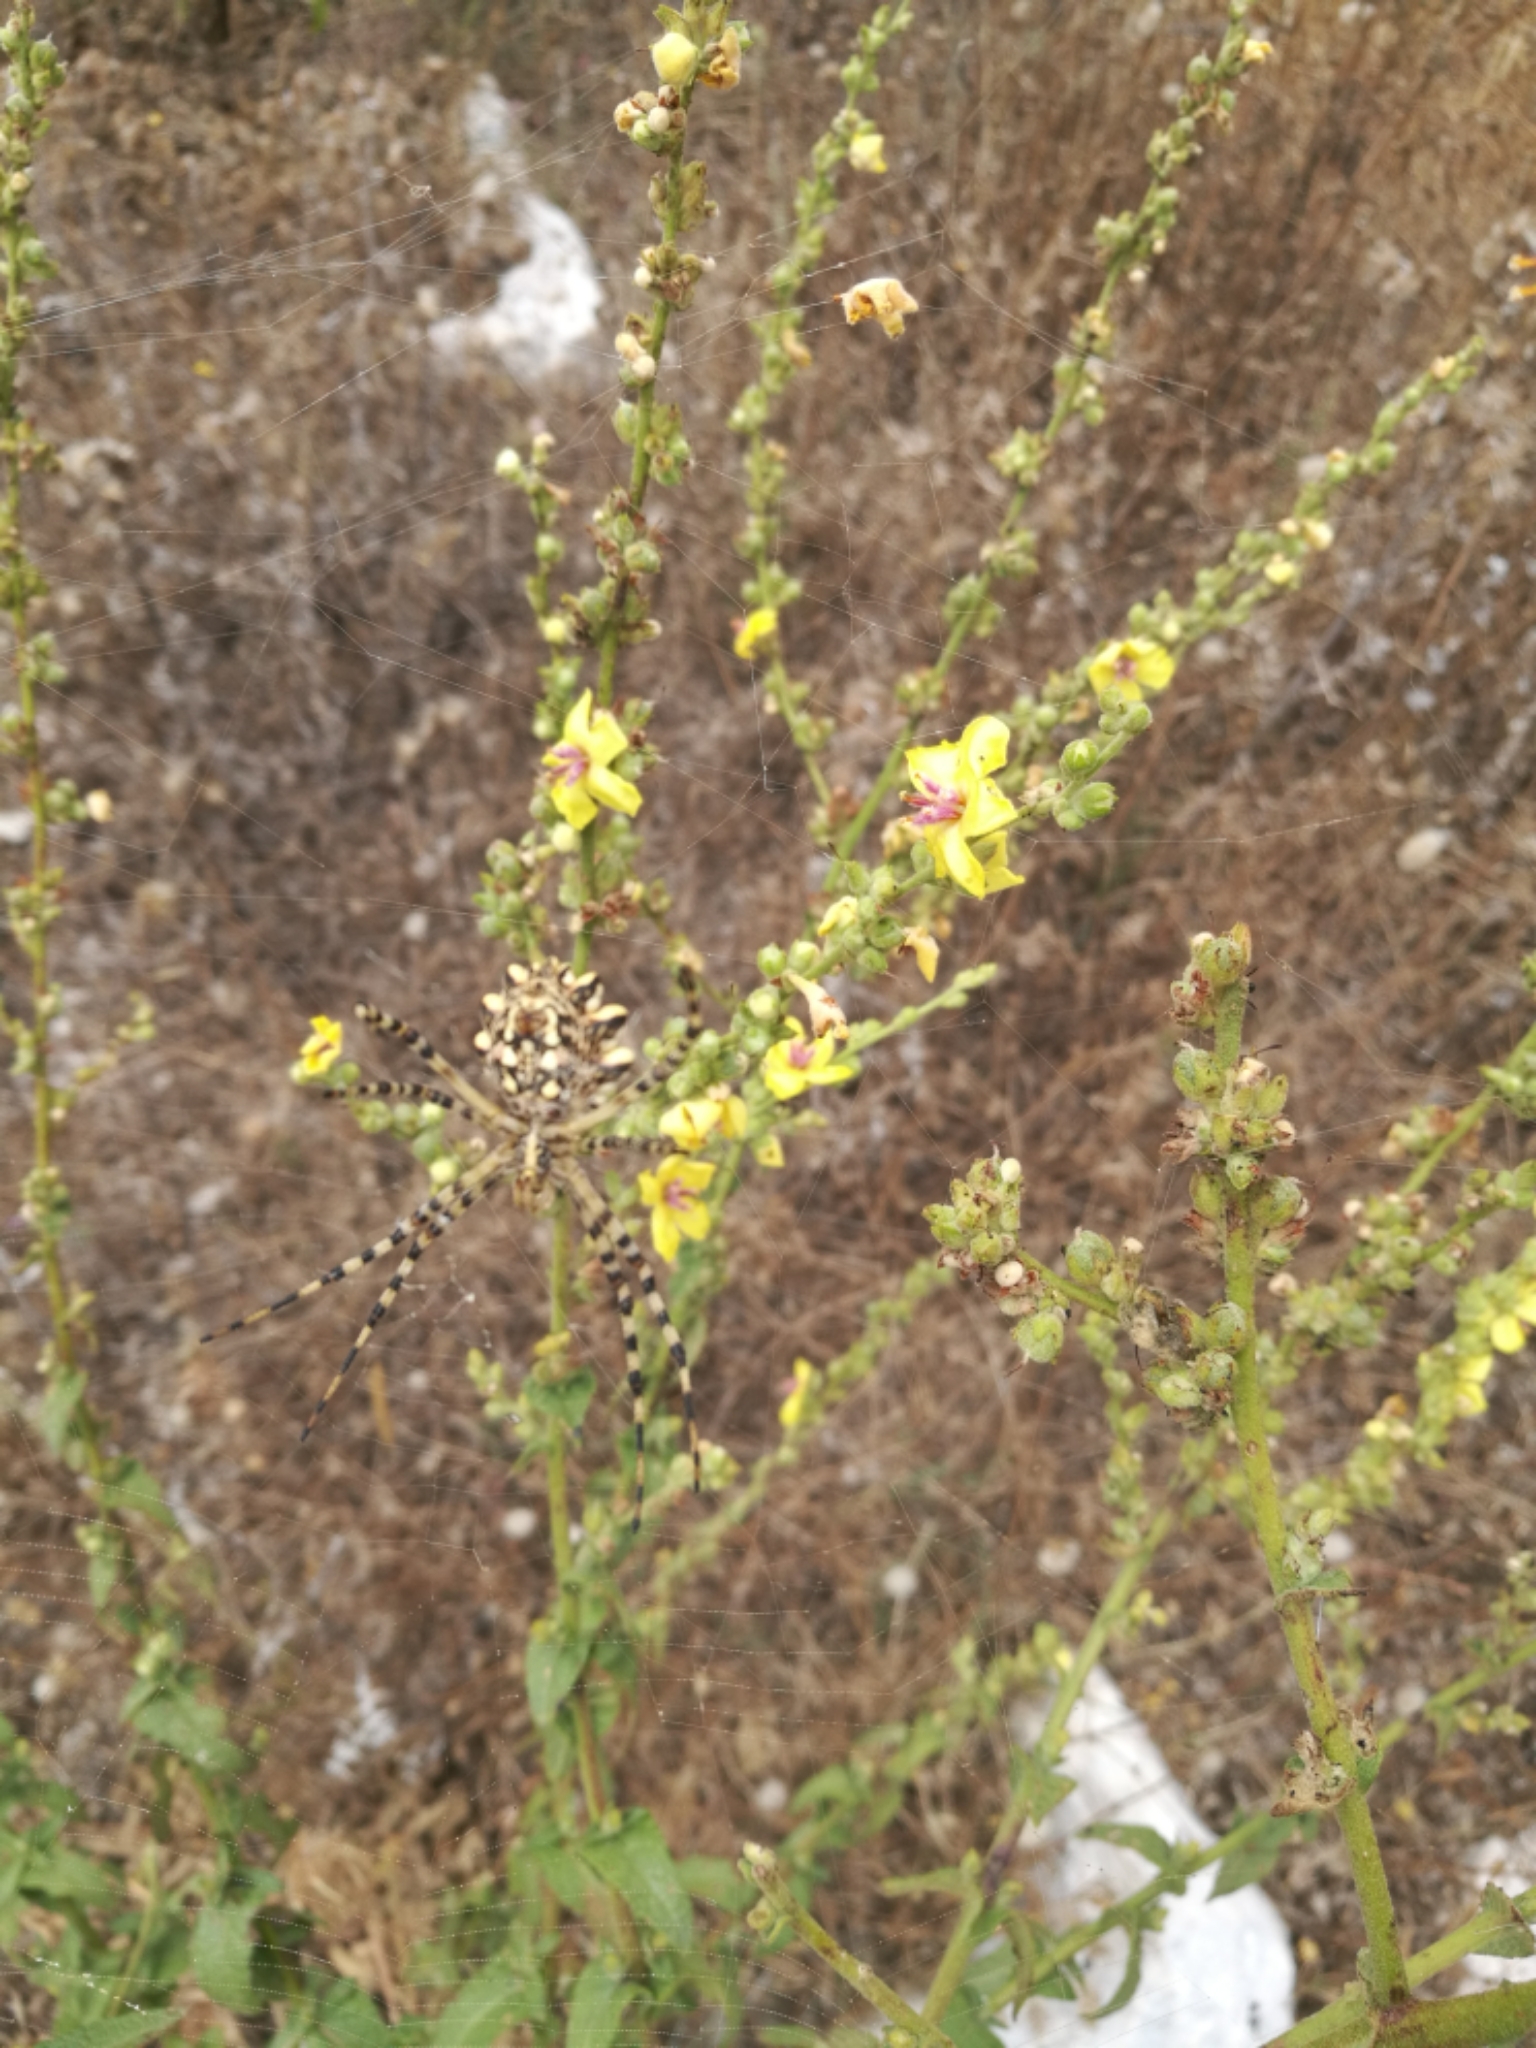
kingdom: Animalia
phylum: Arthropoda
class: Arachnida
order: Araneae
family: Araneidae
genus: Argiope
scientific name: Argiope lobata
